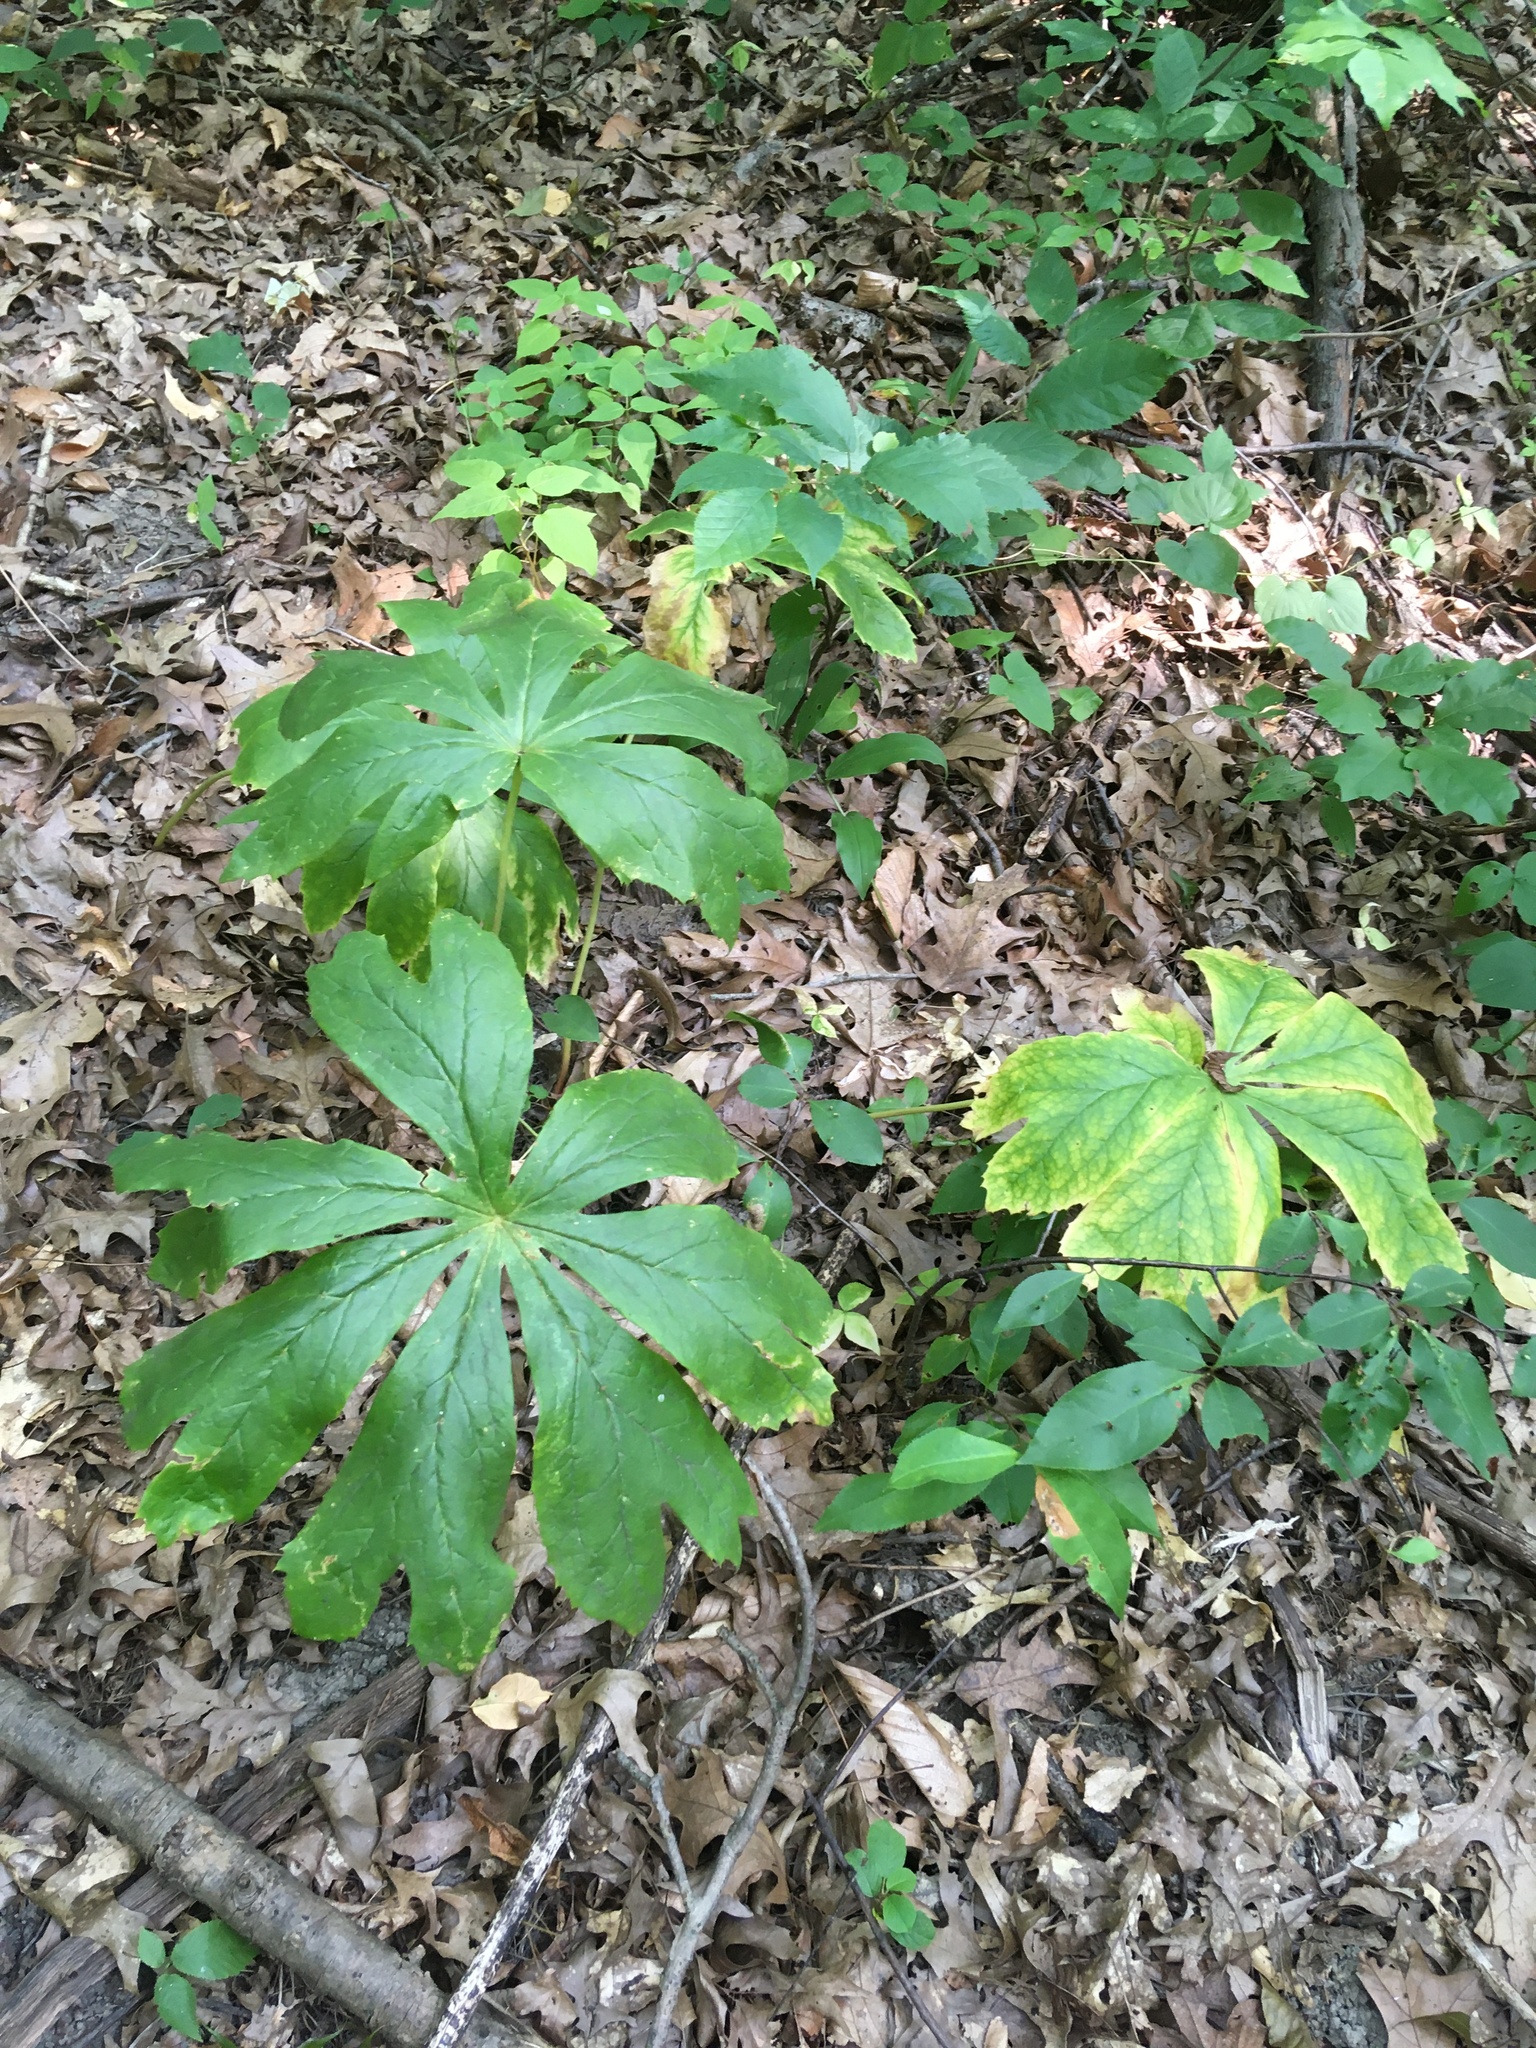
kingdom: Plantae
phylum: Tracheophyta
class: Magnoliopsida
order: Ranunculales
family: Berberidaceae
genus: Podophyllum
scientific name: Podophyllum peltatum
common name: Wild mandrake
